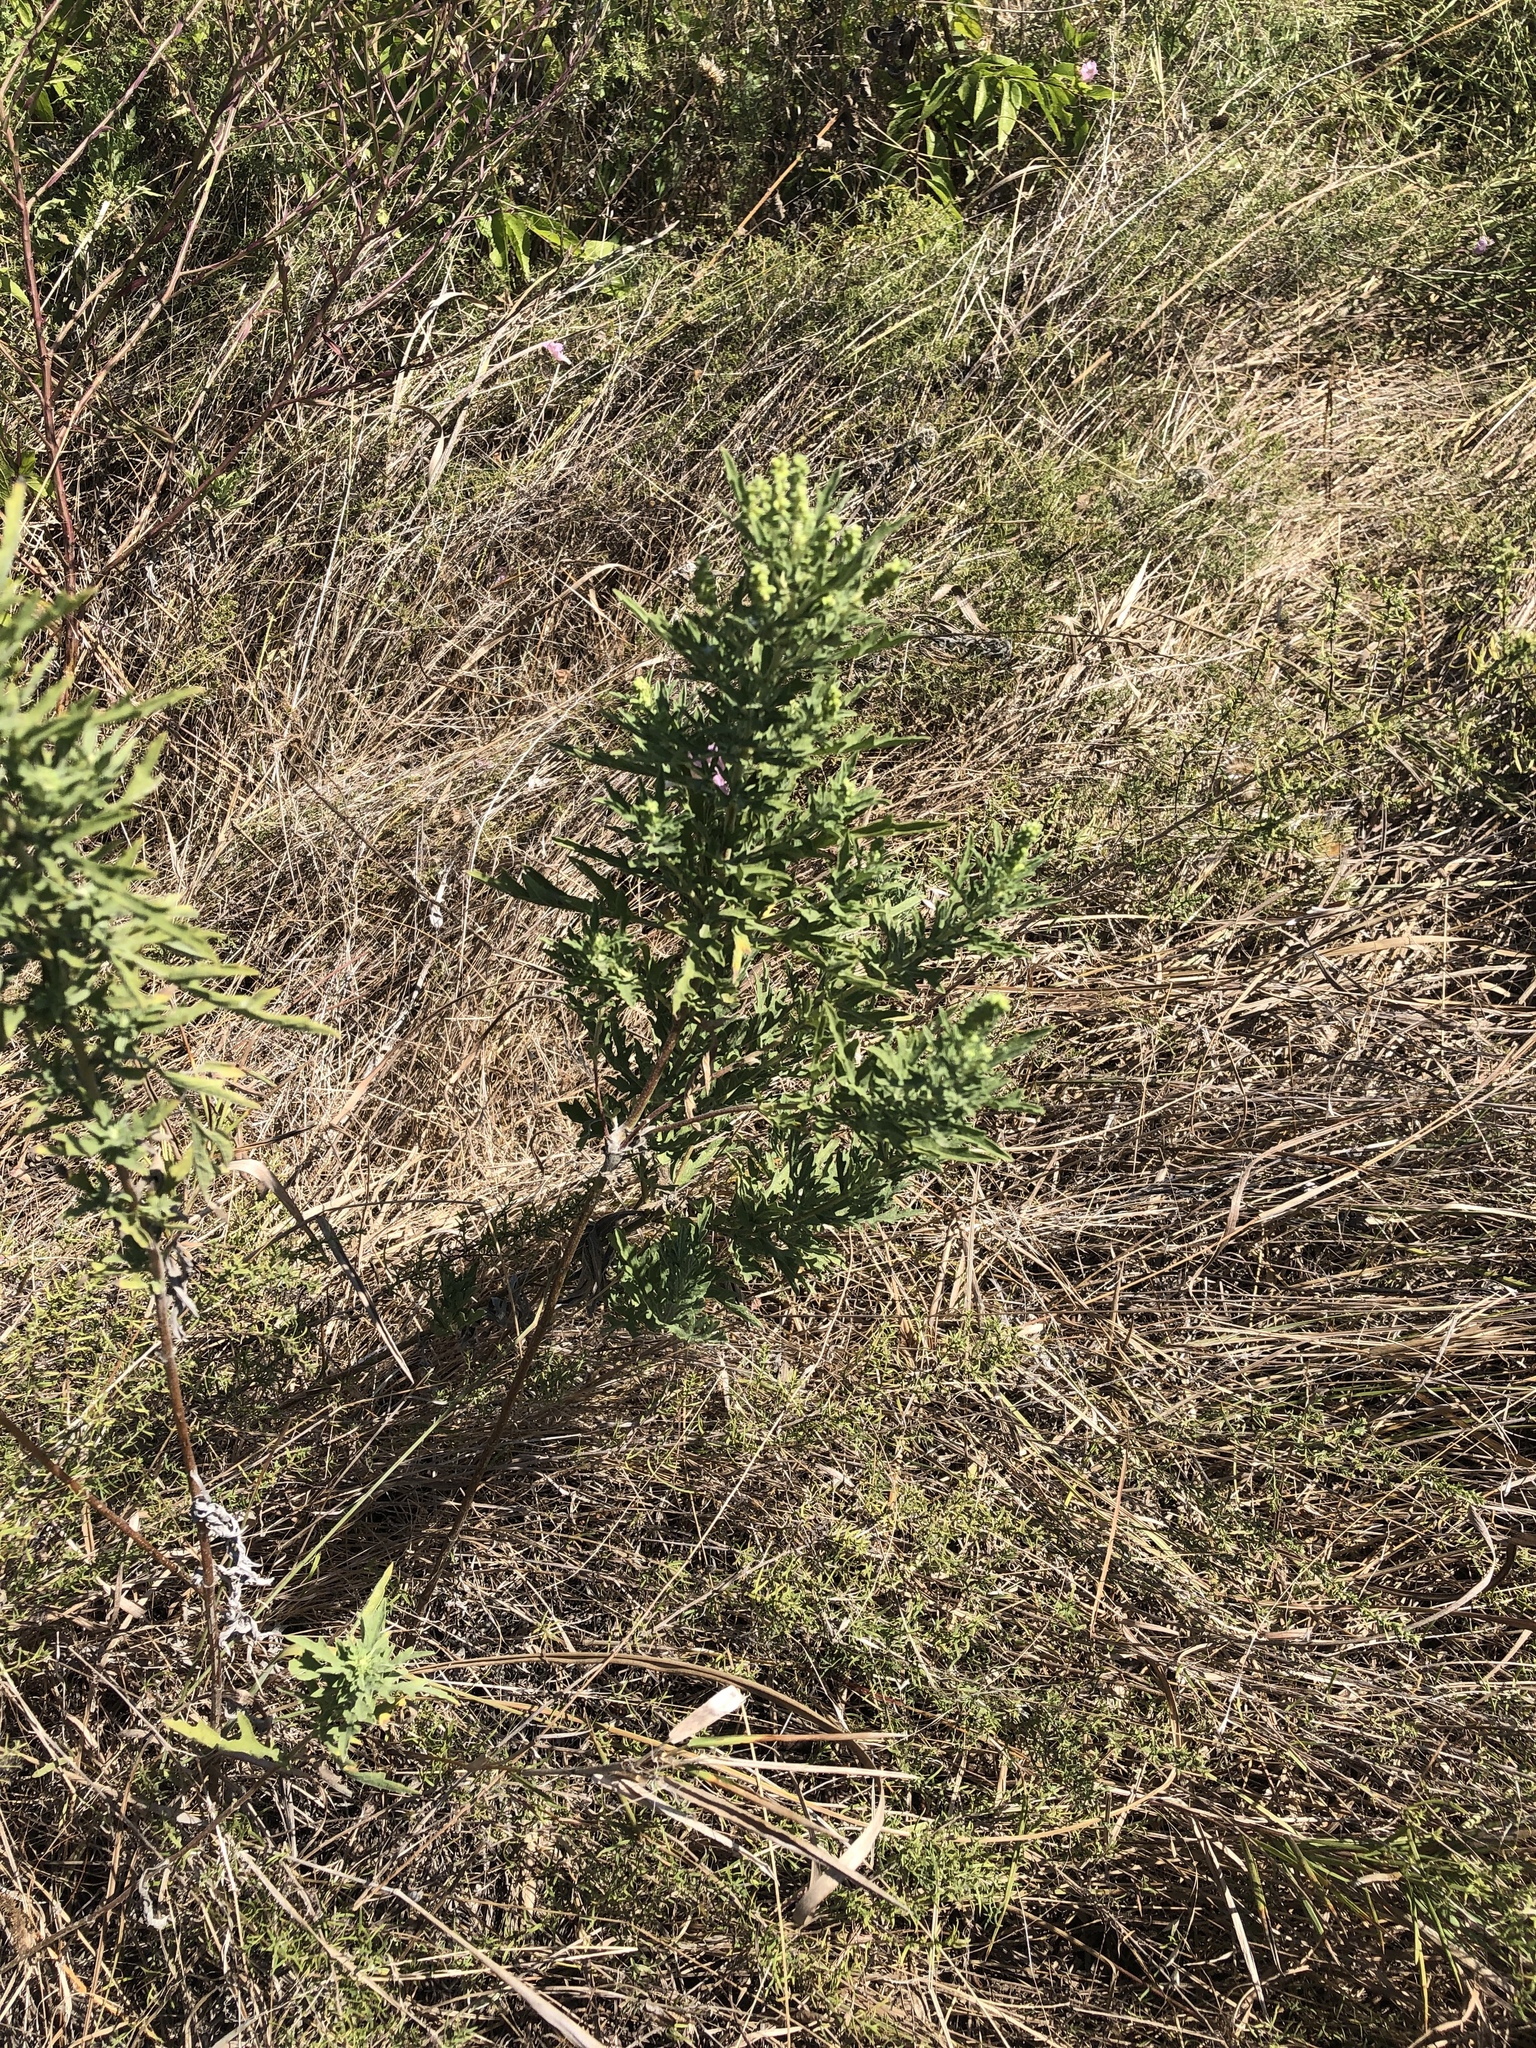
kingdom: Plantae
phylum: Tracheophyta
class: Magnoliopsida
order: Asterales
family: Asteraceae
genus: Ambrosia
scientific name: Ambrosia psilostachya
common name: Perennial ragweed
